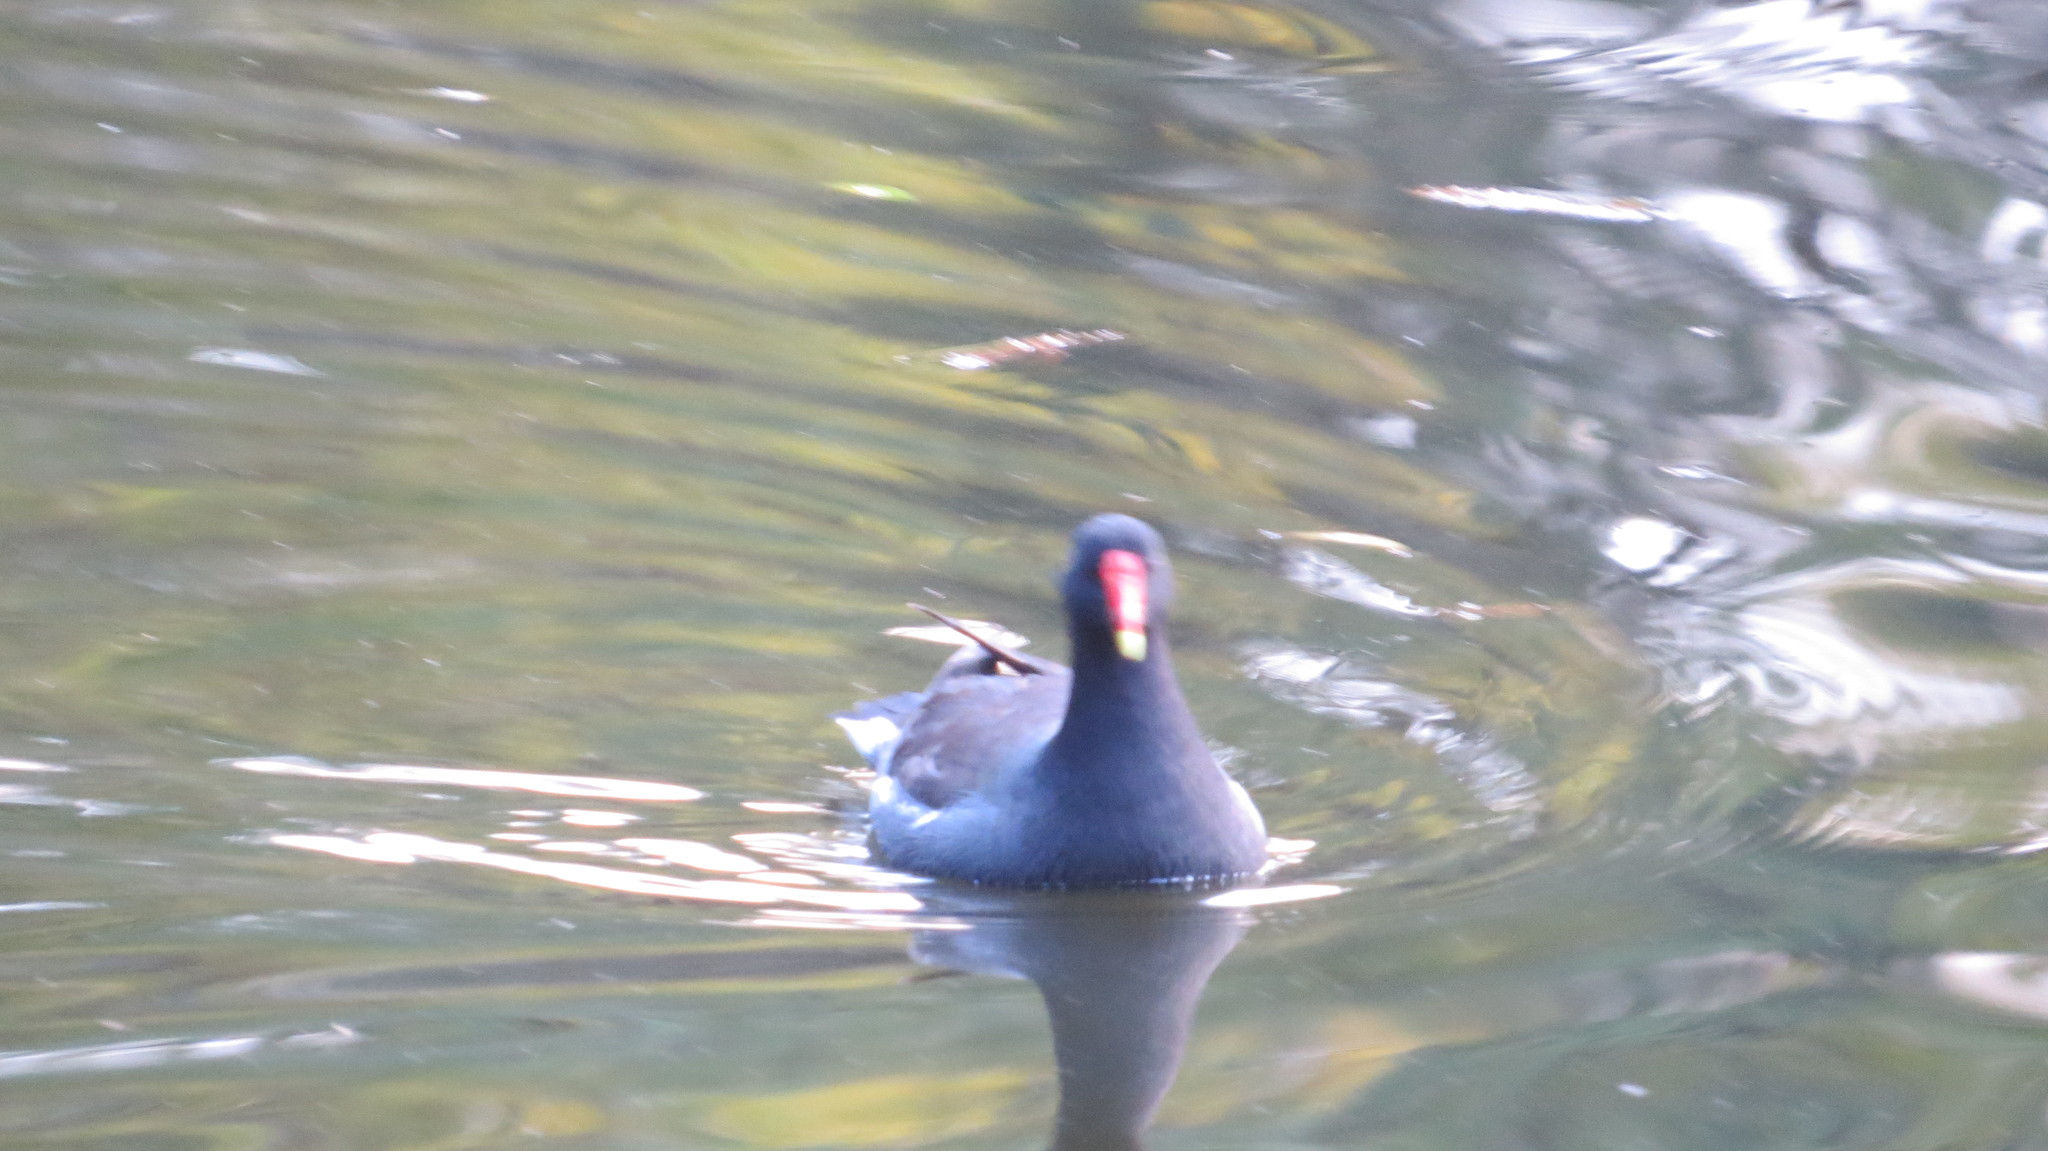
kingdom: Animalia
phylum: Chordata
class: Aves
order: Gruiformes
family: Rallidae
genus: Gallinula
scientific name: Gallinula chloropus
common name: Common moorhen
